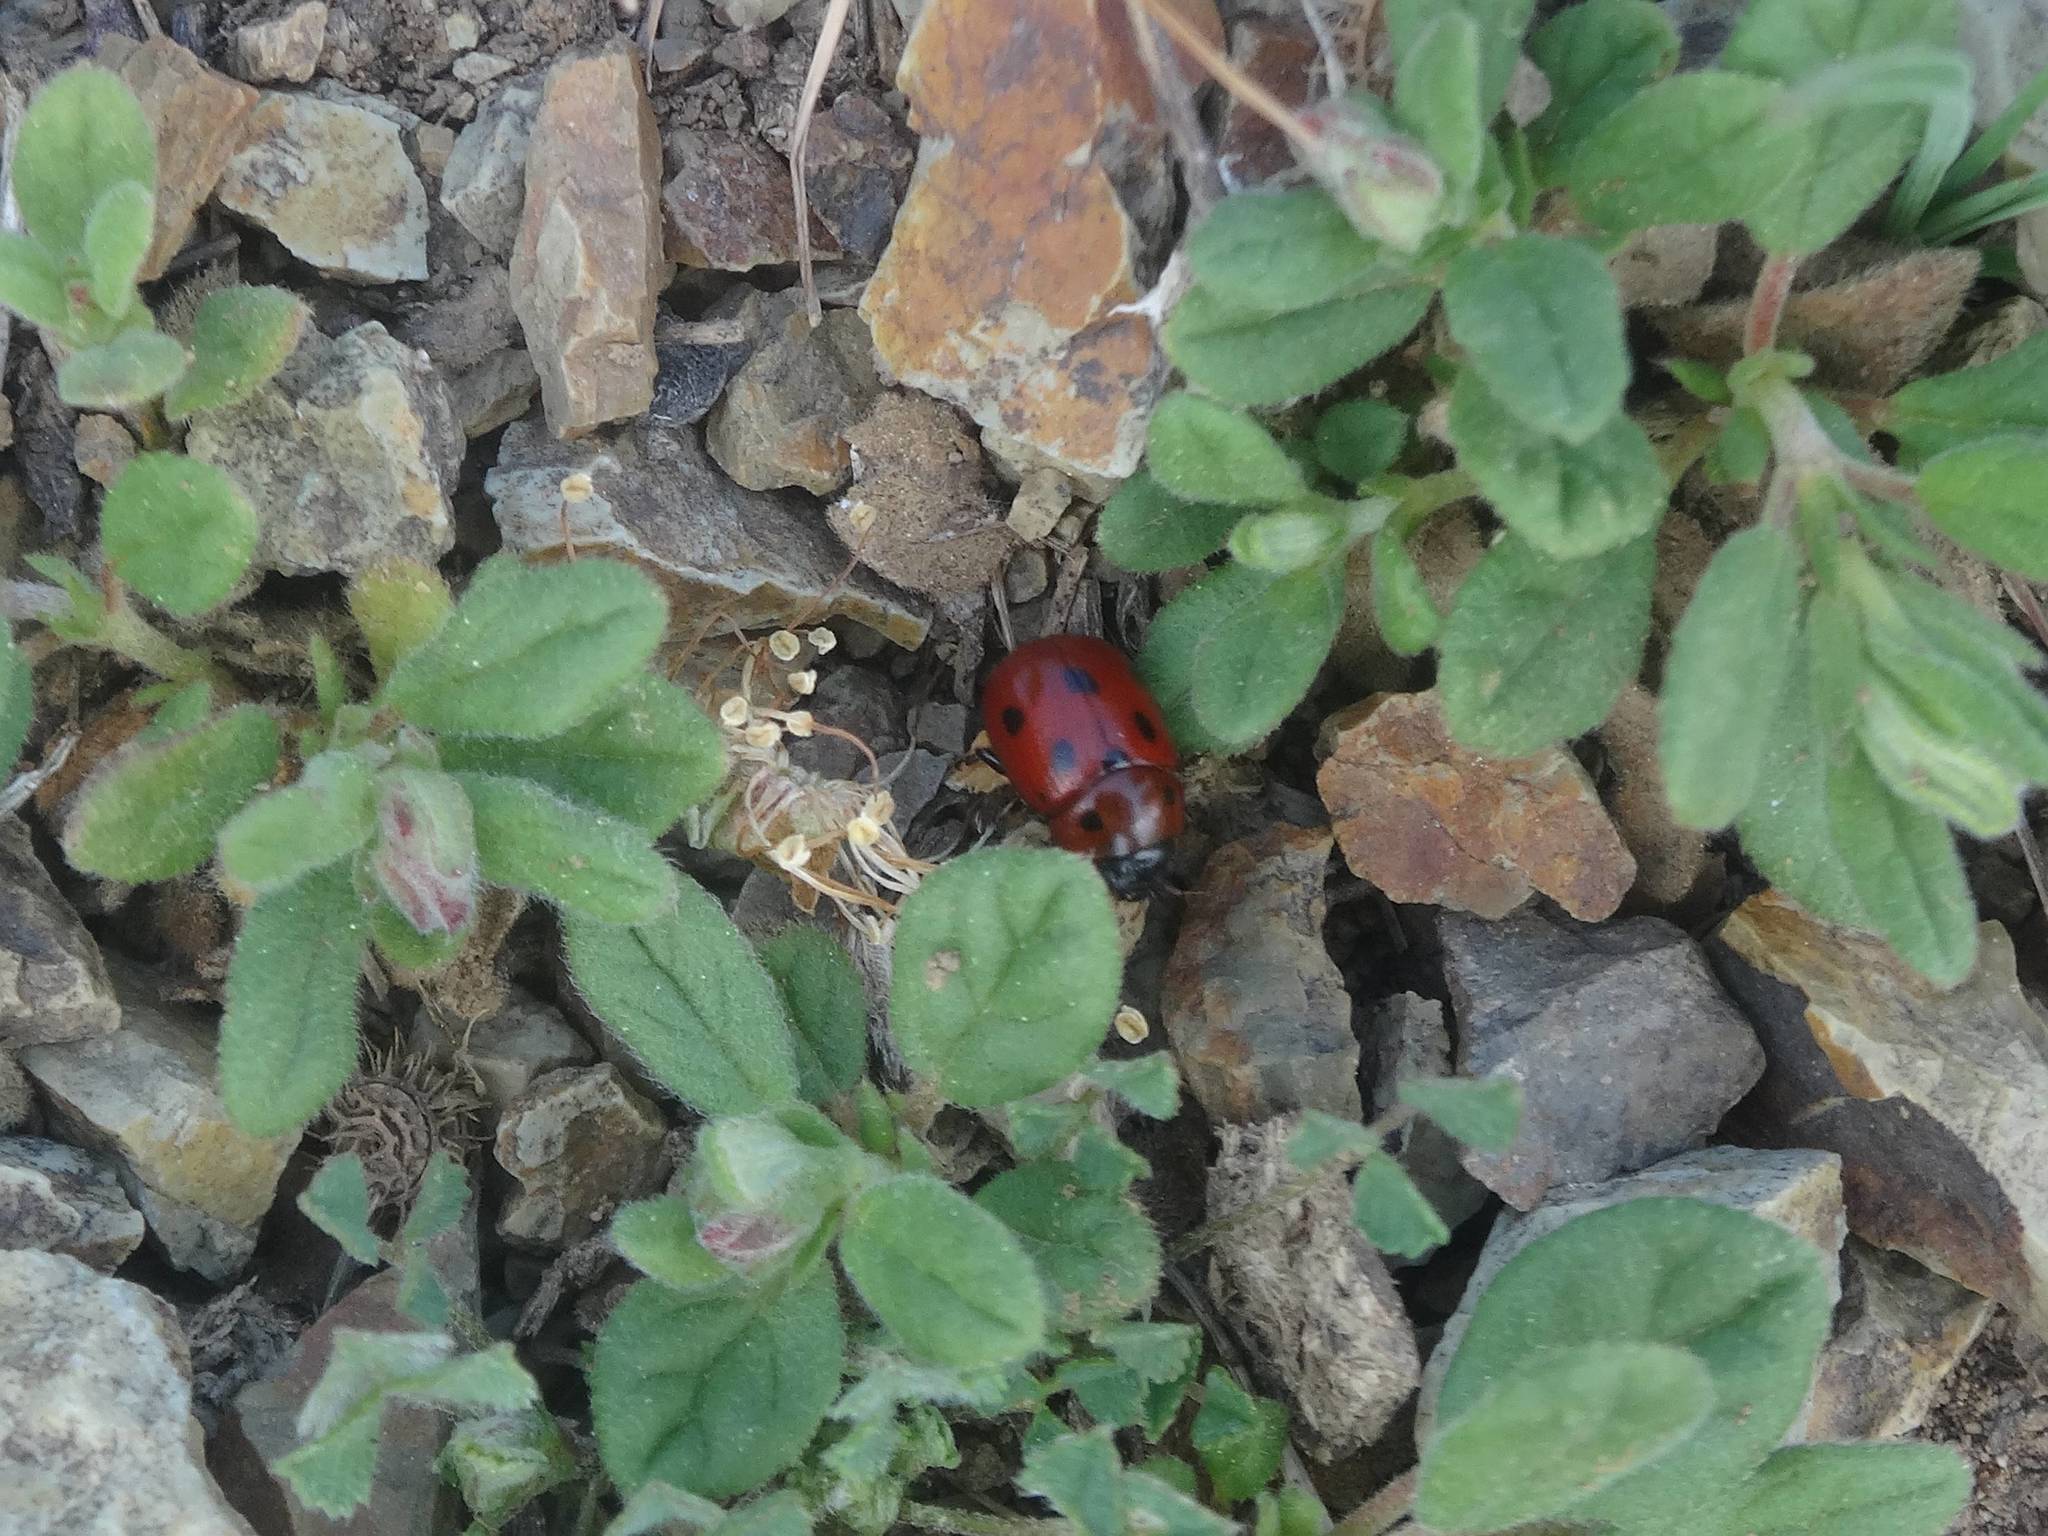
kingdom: Animalia
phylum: Arthropoda
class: Insecta
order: Coleoptera
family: Chrysomelidae
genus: Gonioctena
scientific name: Gonioctena fornicata
